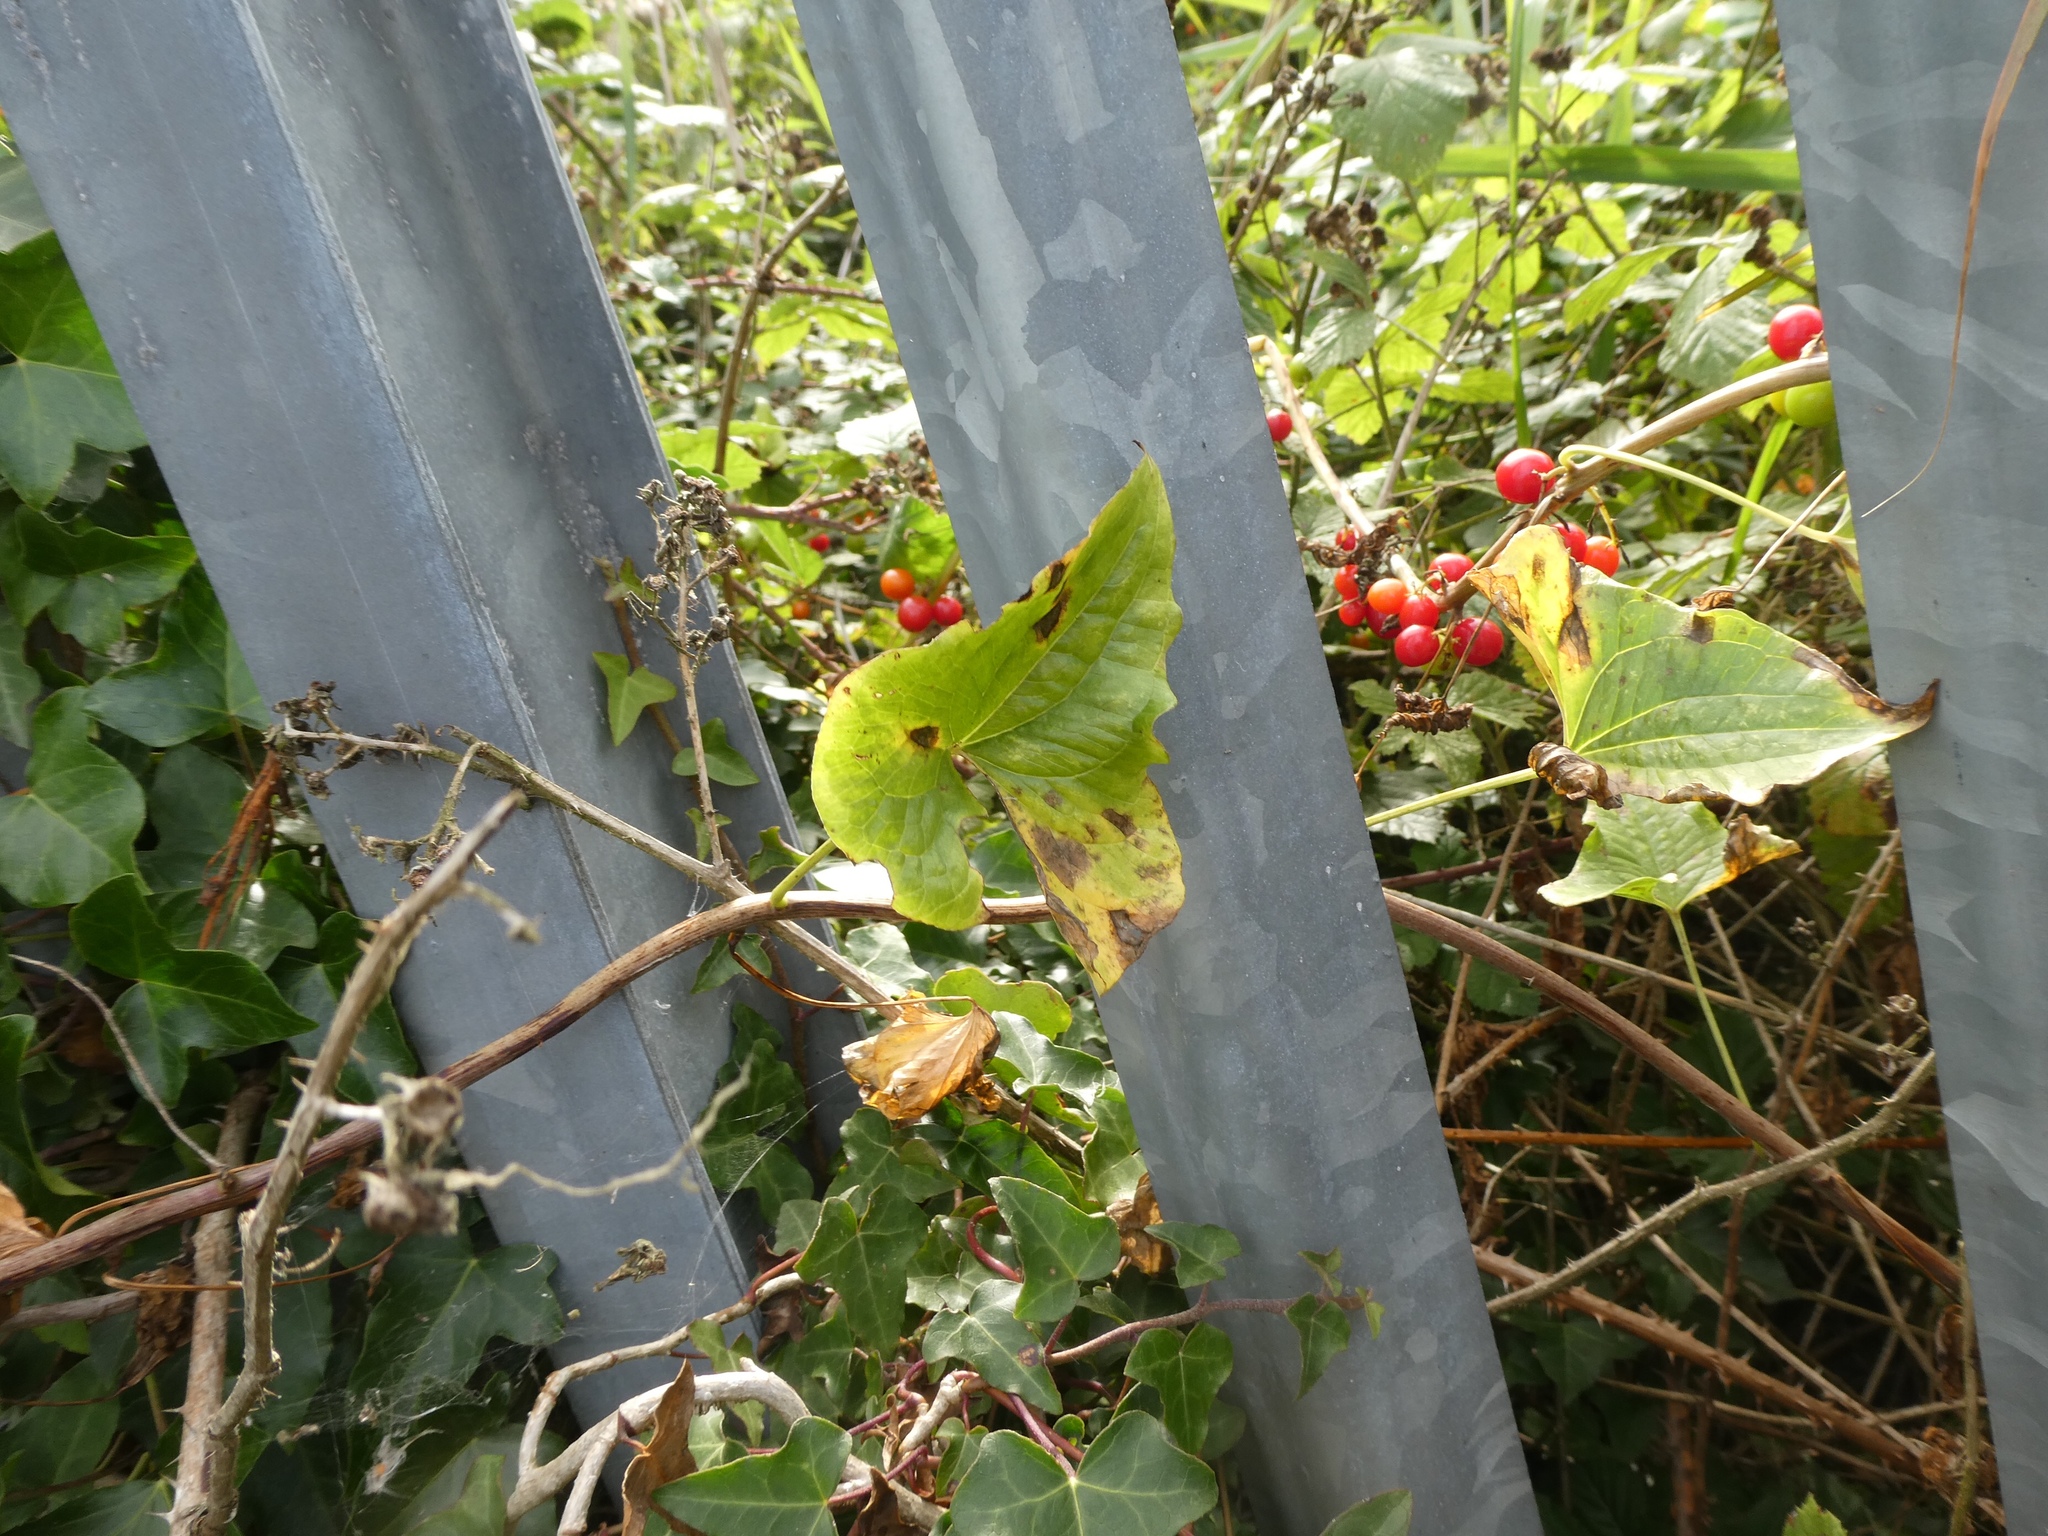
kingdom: Plantae
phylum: Tracheophyta
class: Liliopsida
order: Dioscoreales
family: Dioscoreaceae
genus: Dioscorea
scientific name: Dioscorea communis
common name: Black-bindweed
